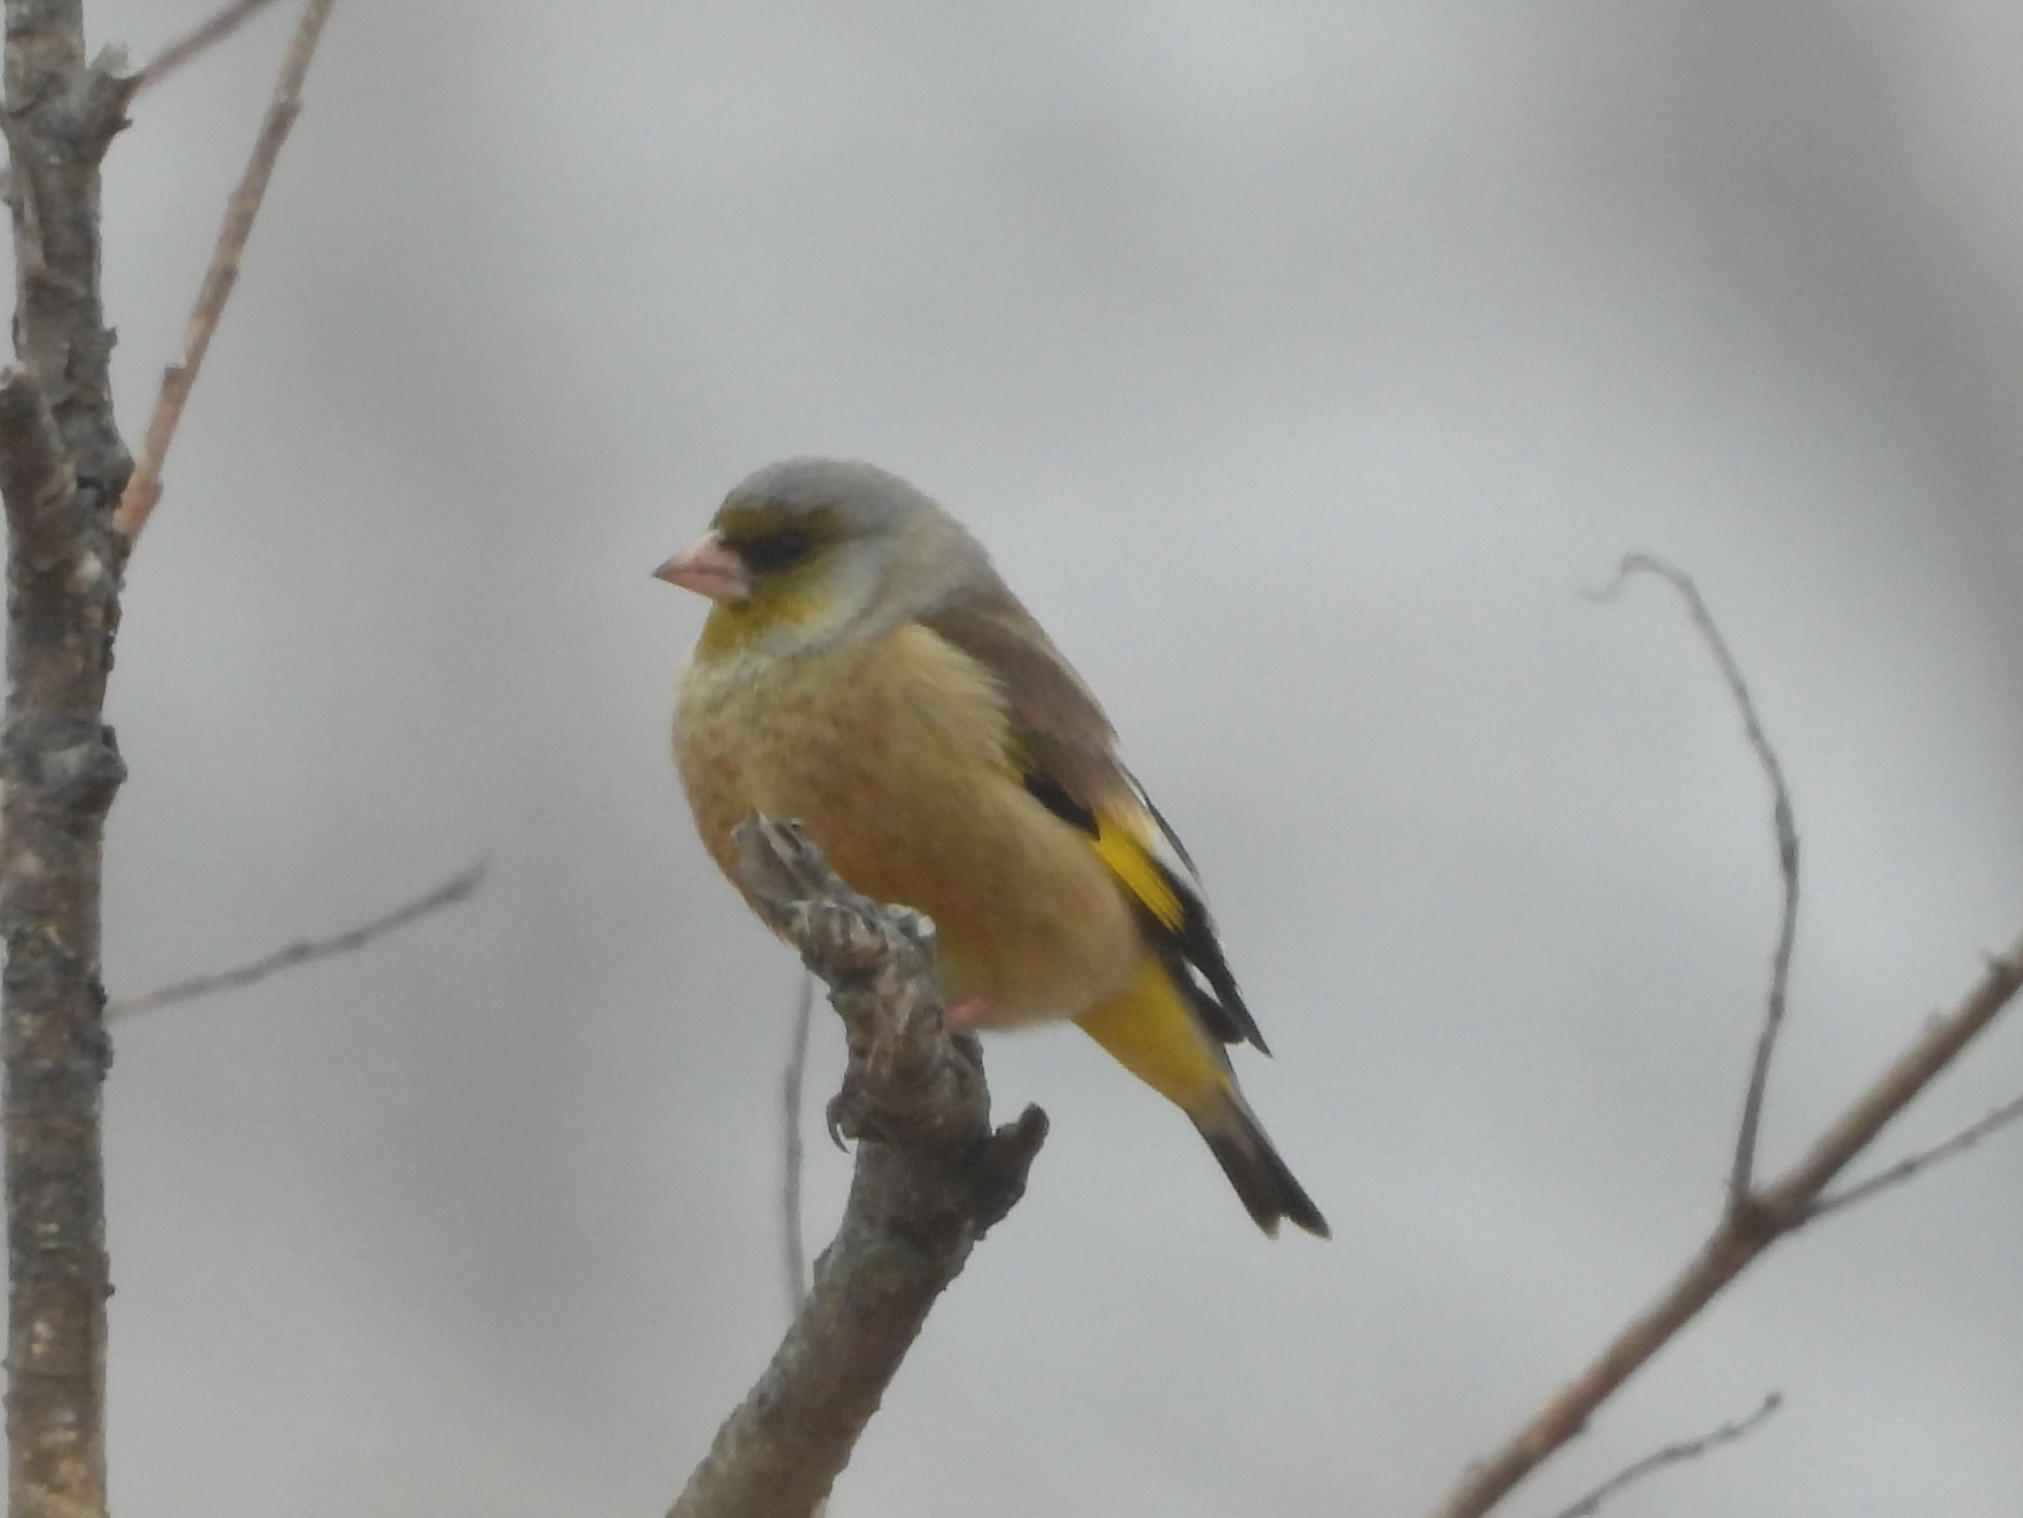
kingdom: Plantae
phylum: Tracheophyta
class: Liliopsida
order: Poales
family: Poaceae
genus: Chloris
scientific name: Chloris sinica
